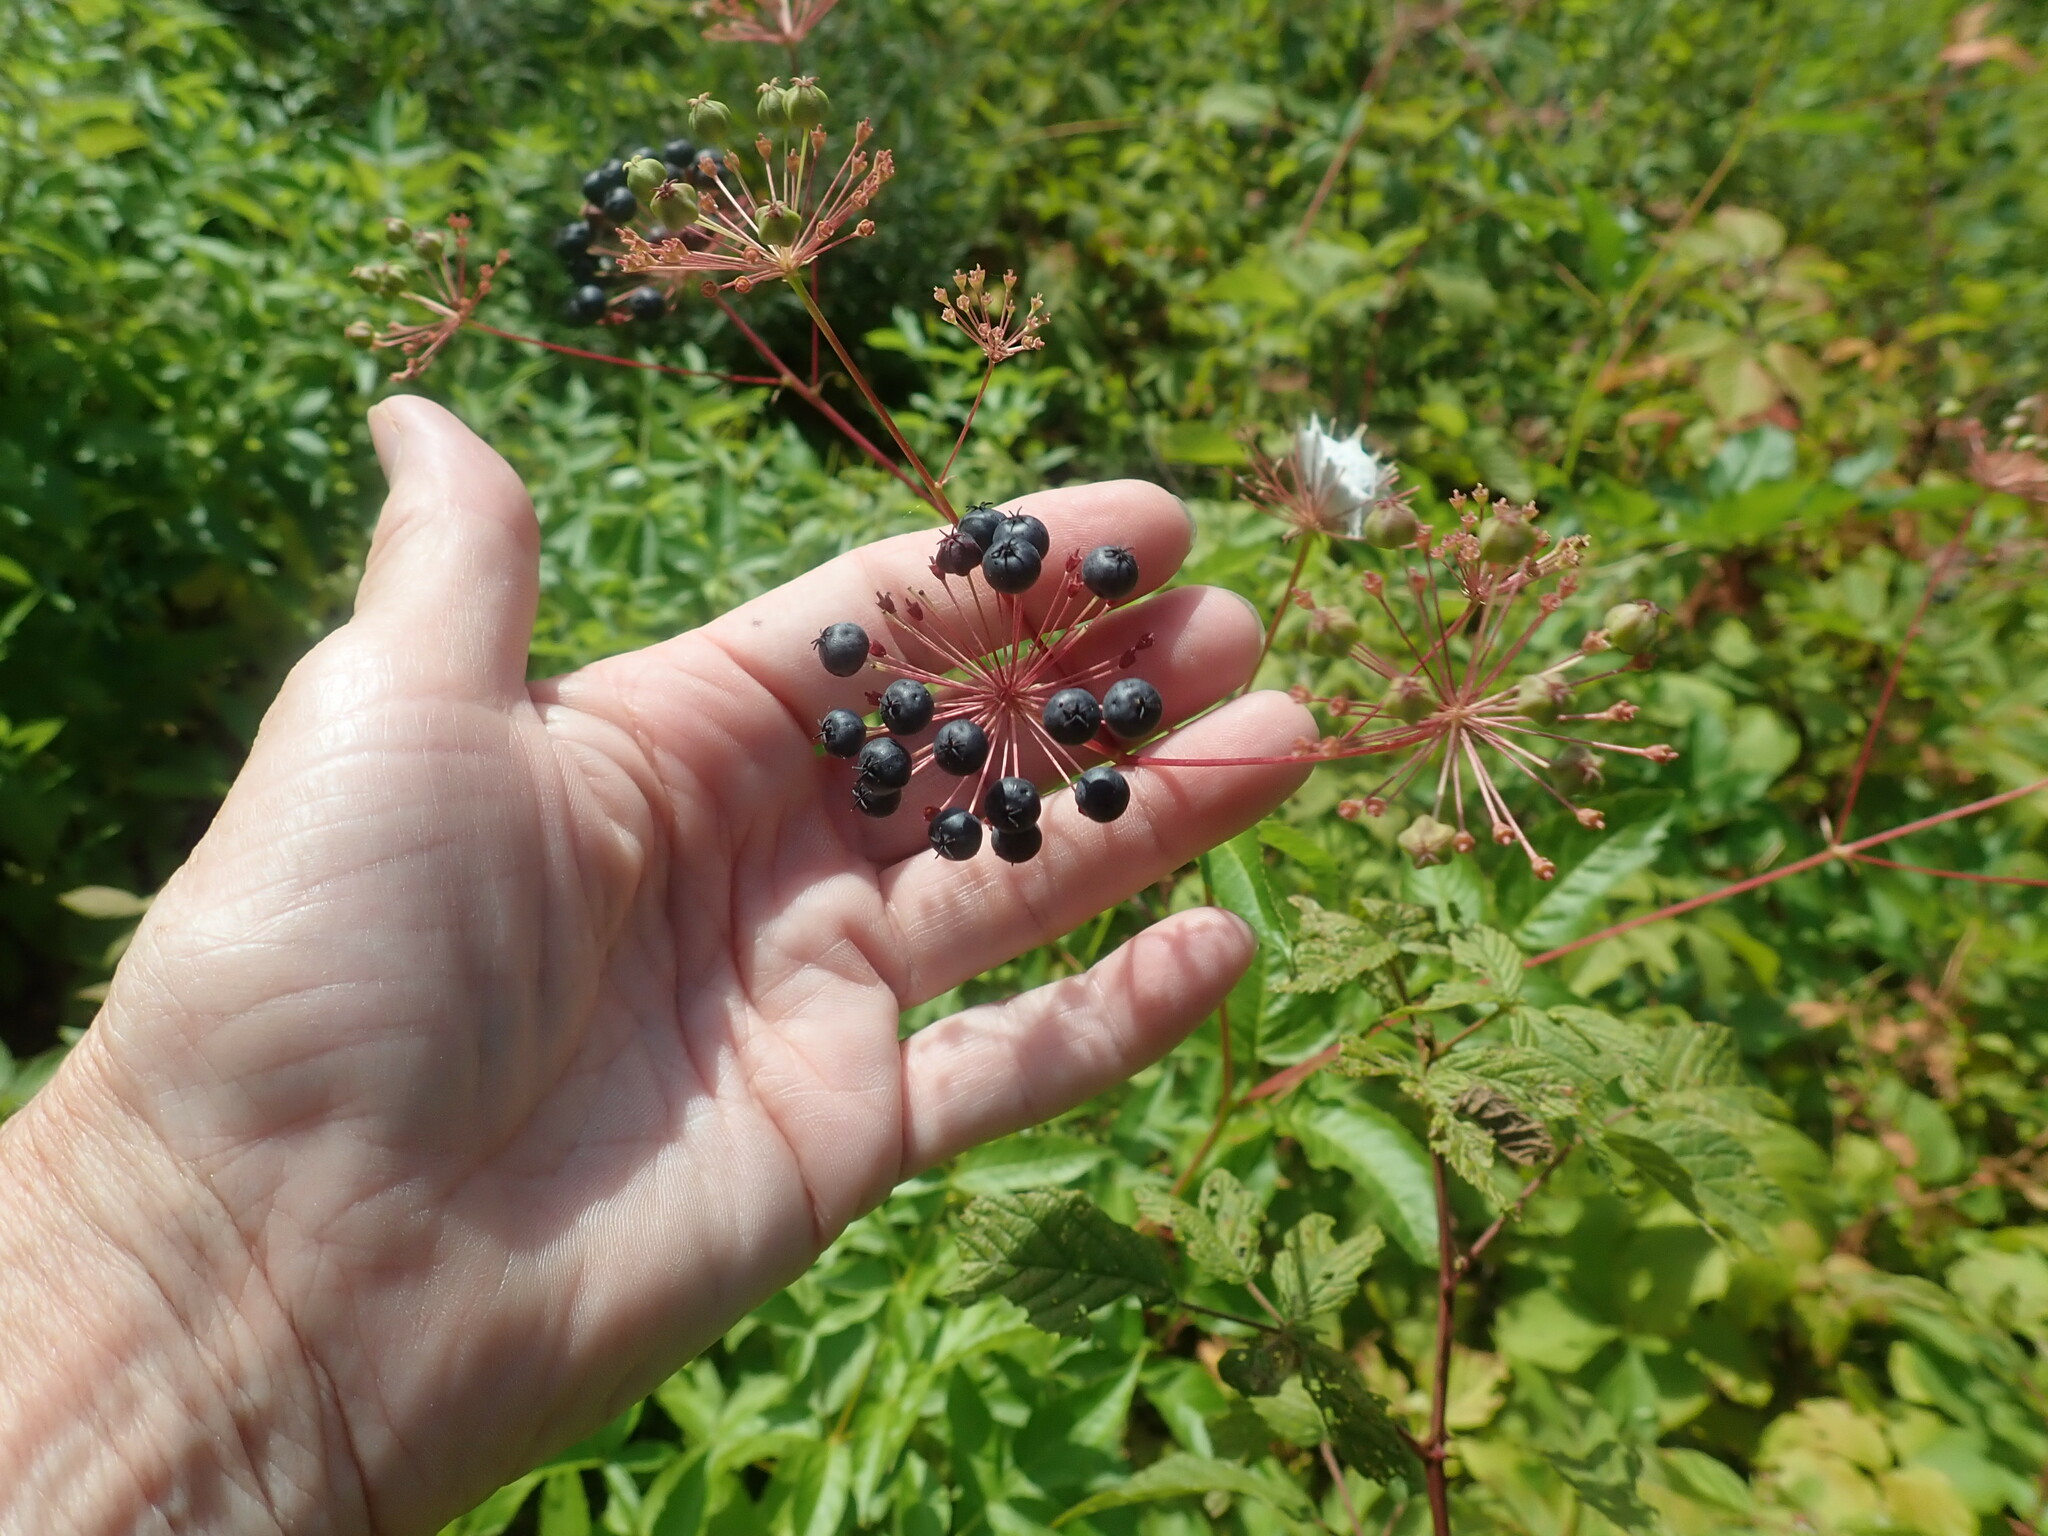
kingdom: Plantae
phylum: Tracheophyta
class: Magnoliopsida
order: Apiales
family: Araliaceae
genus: Aralia
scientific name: Aralia hispida
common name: Bristly sarsaparilla
